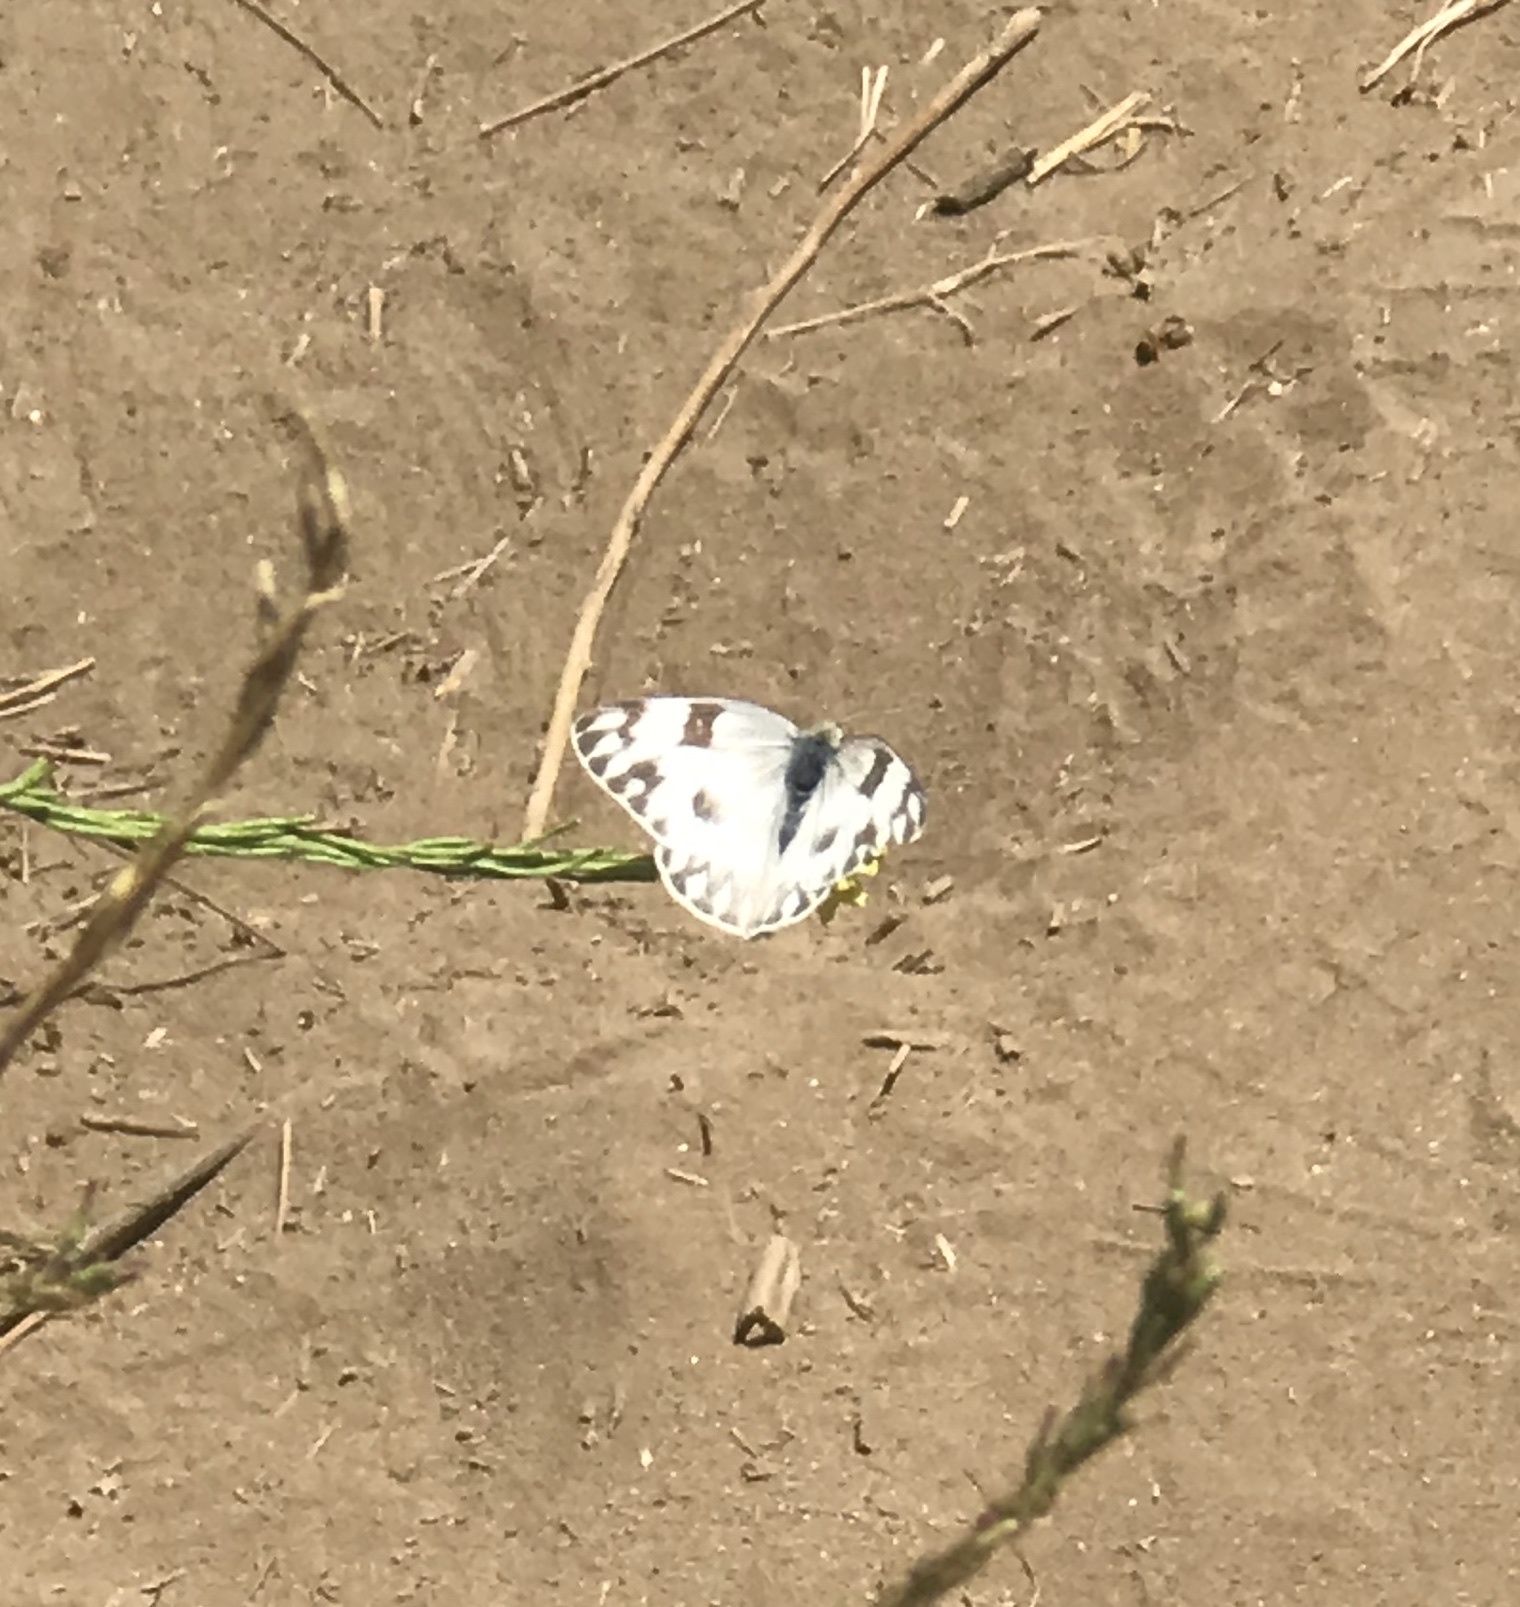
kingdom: Animalia
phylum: Arthropoda
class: Insecta
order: Lepidoptera
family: Pieridae
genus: Pontia
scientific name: Pontia protodice
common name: Checkered white
